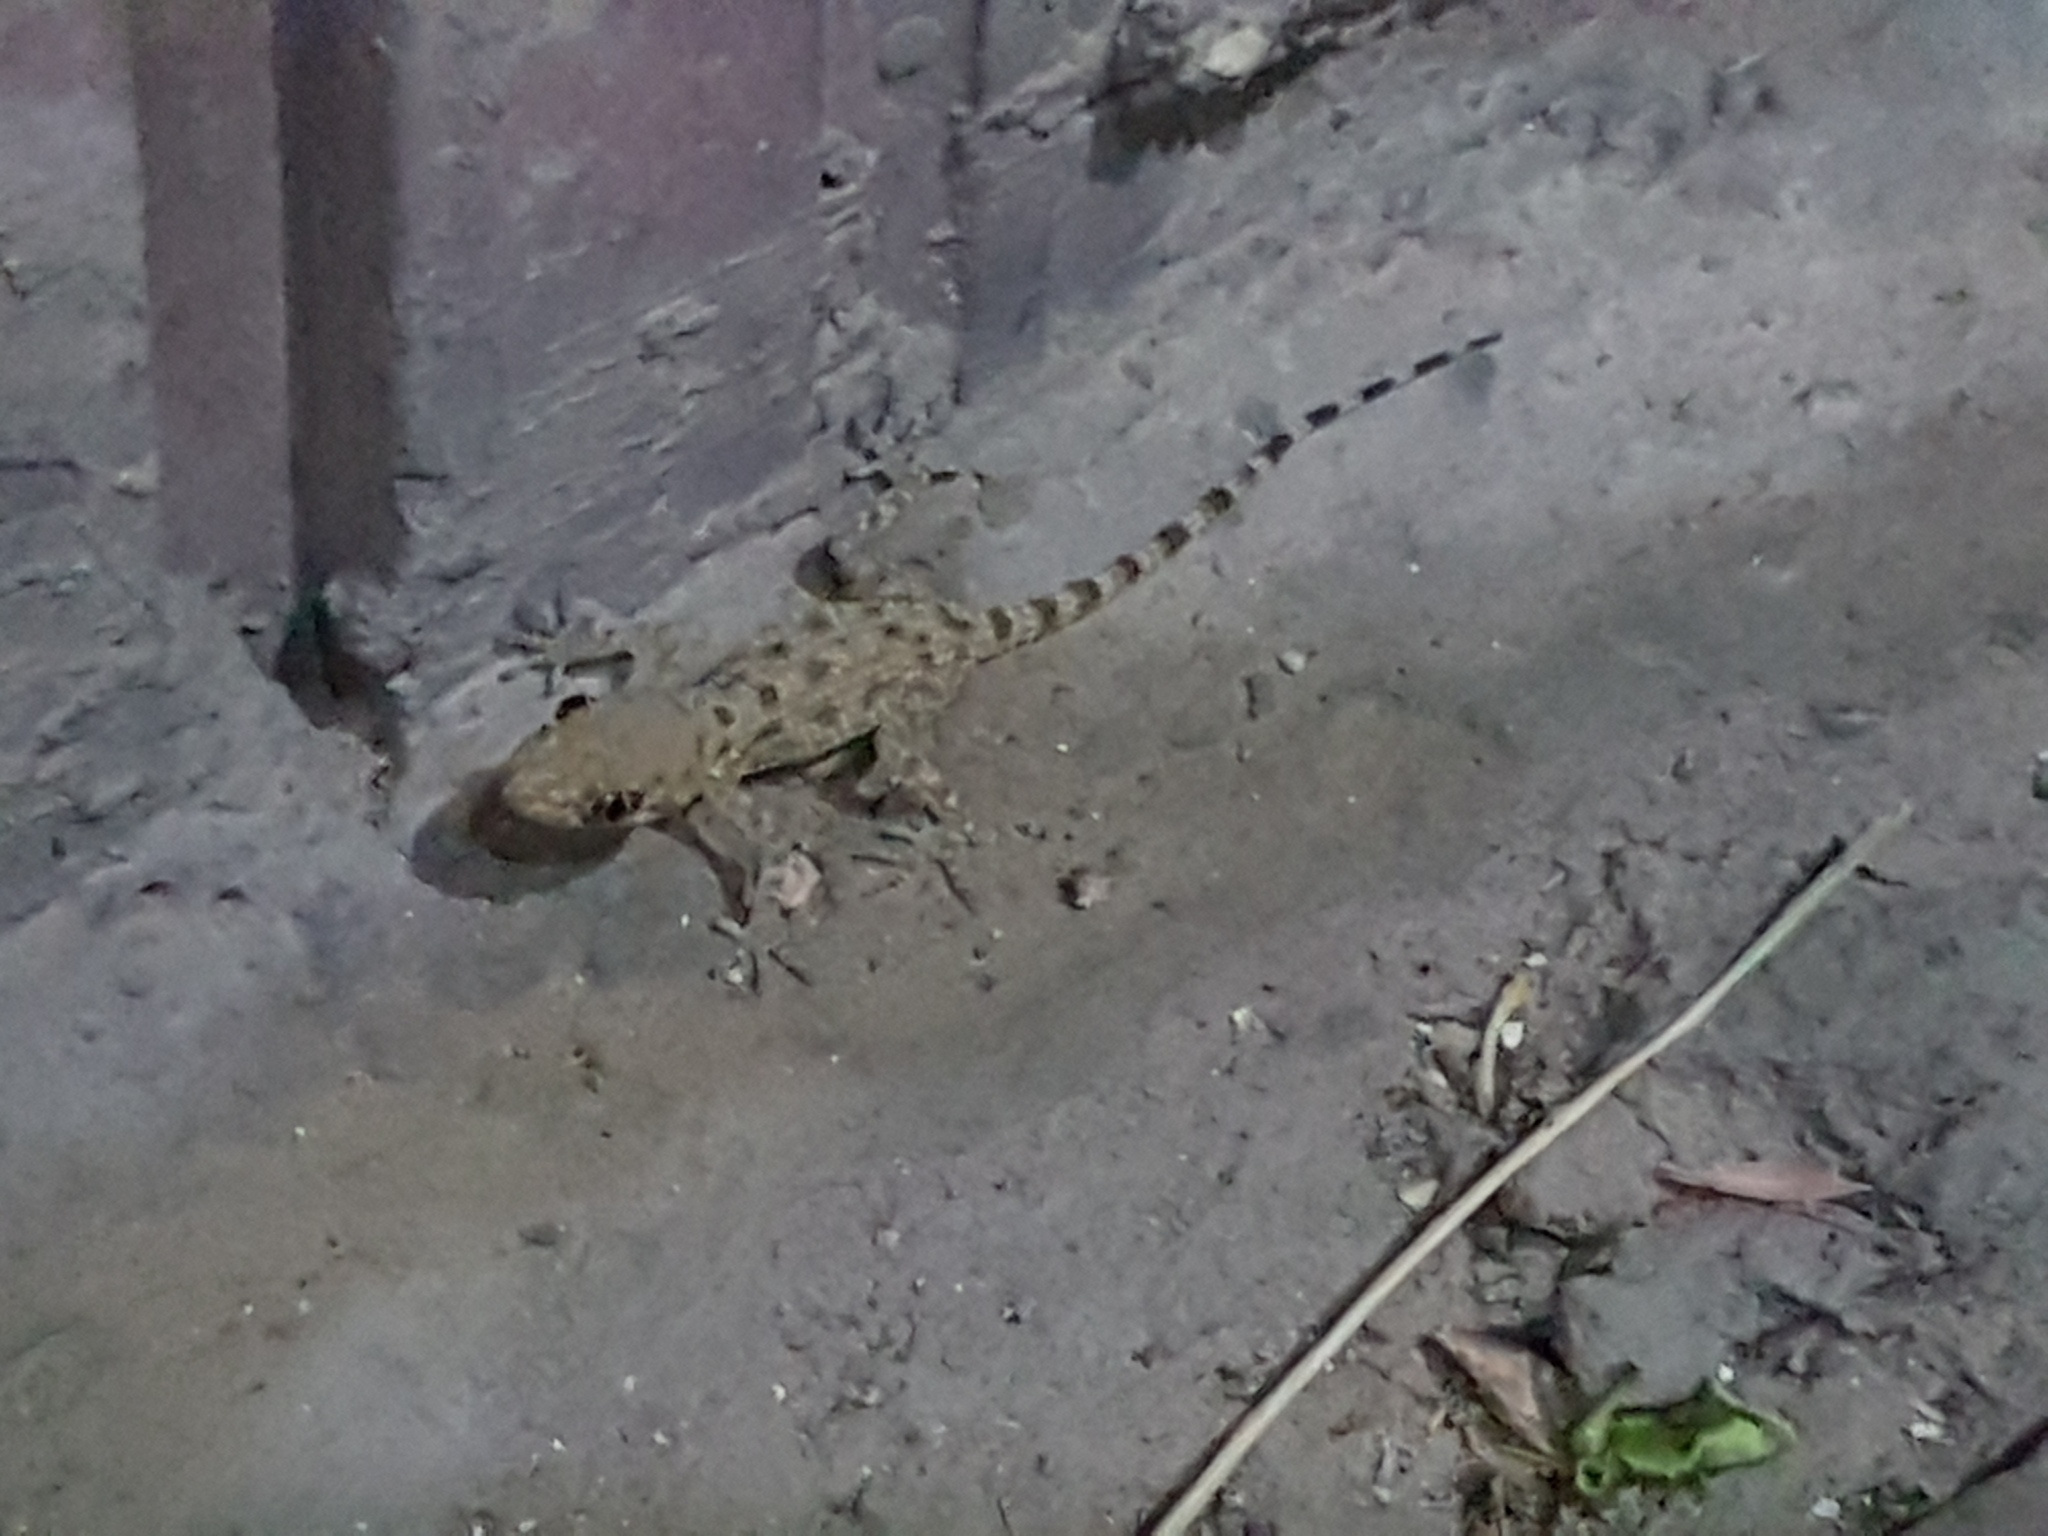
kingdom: Animalia
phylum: Chordata
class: Squamata
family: Gekkonidae
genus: Cyrtopodion
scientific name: Cyrtopodion scabrum
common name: Rough-tailed gecko
